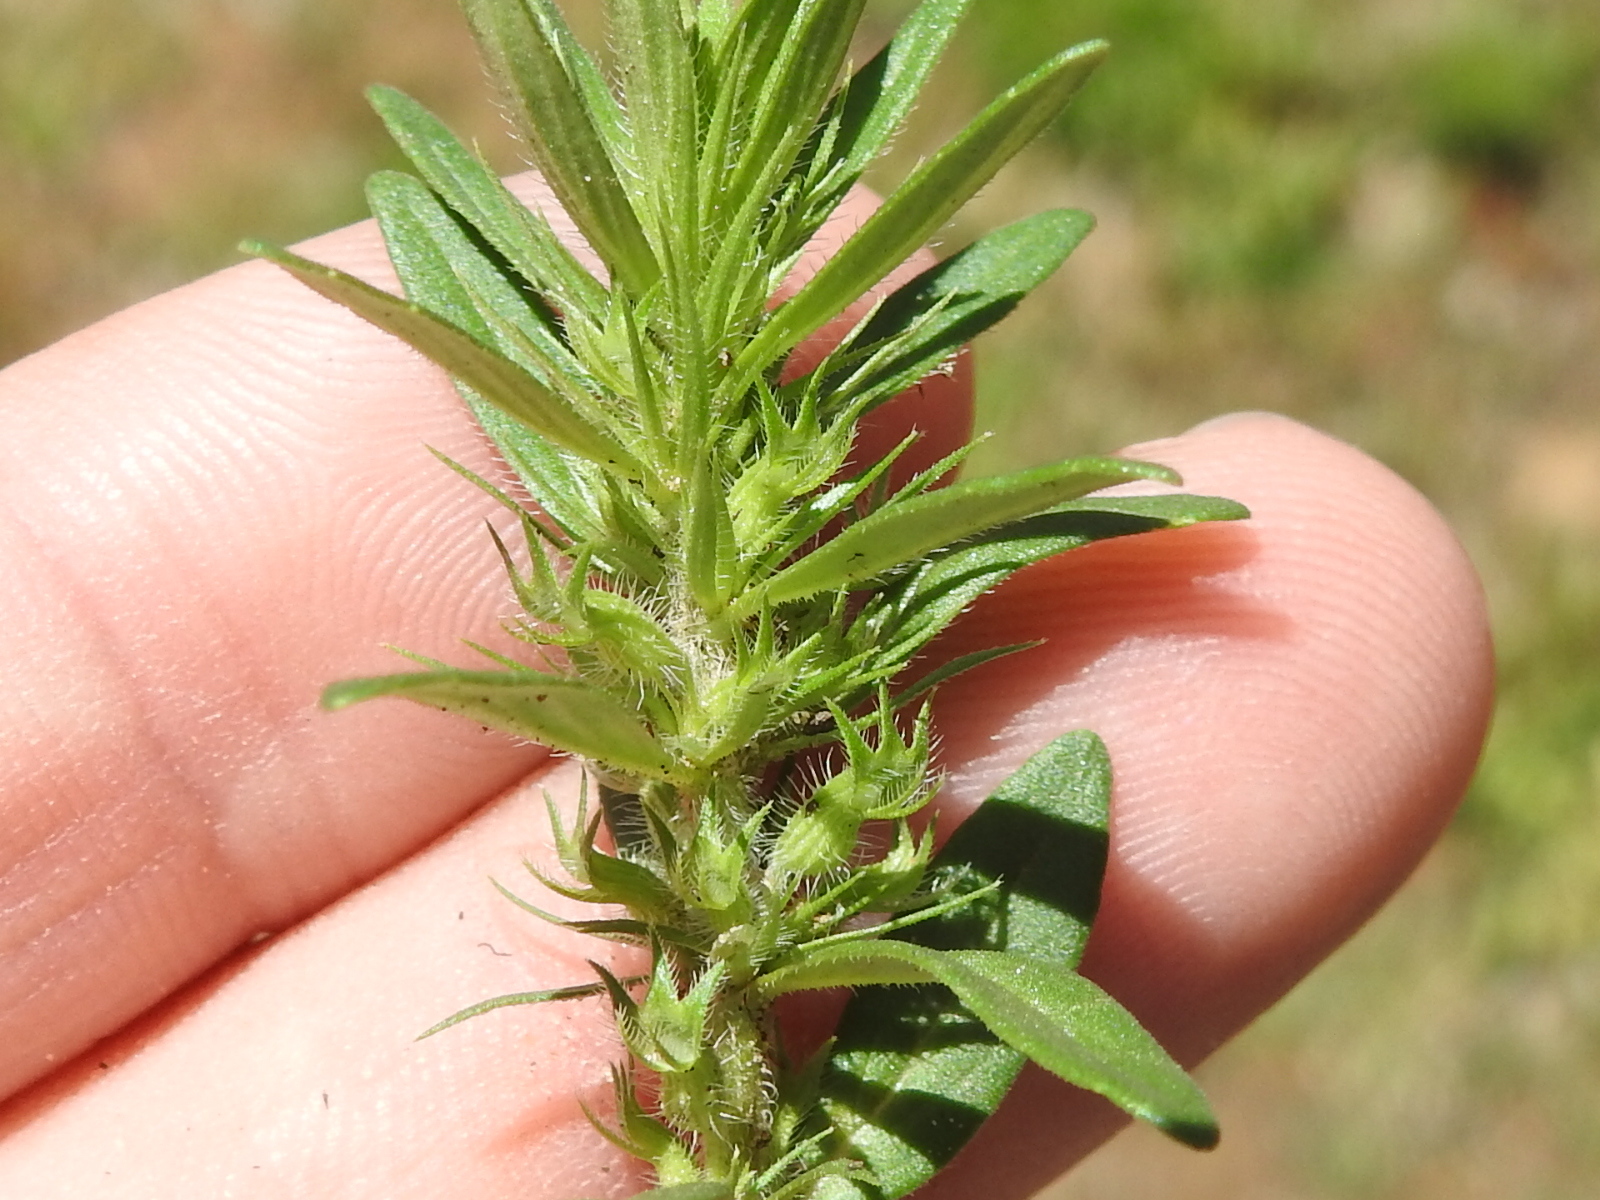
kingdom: Plantae
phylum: Tracheophyta
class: Magnoliopsida
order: Lamiales
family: Lamiaceae
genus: Hedeoma
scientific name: Hedeoma hispida
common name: Mock pennyroyal
